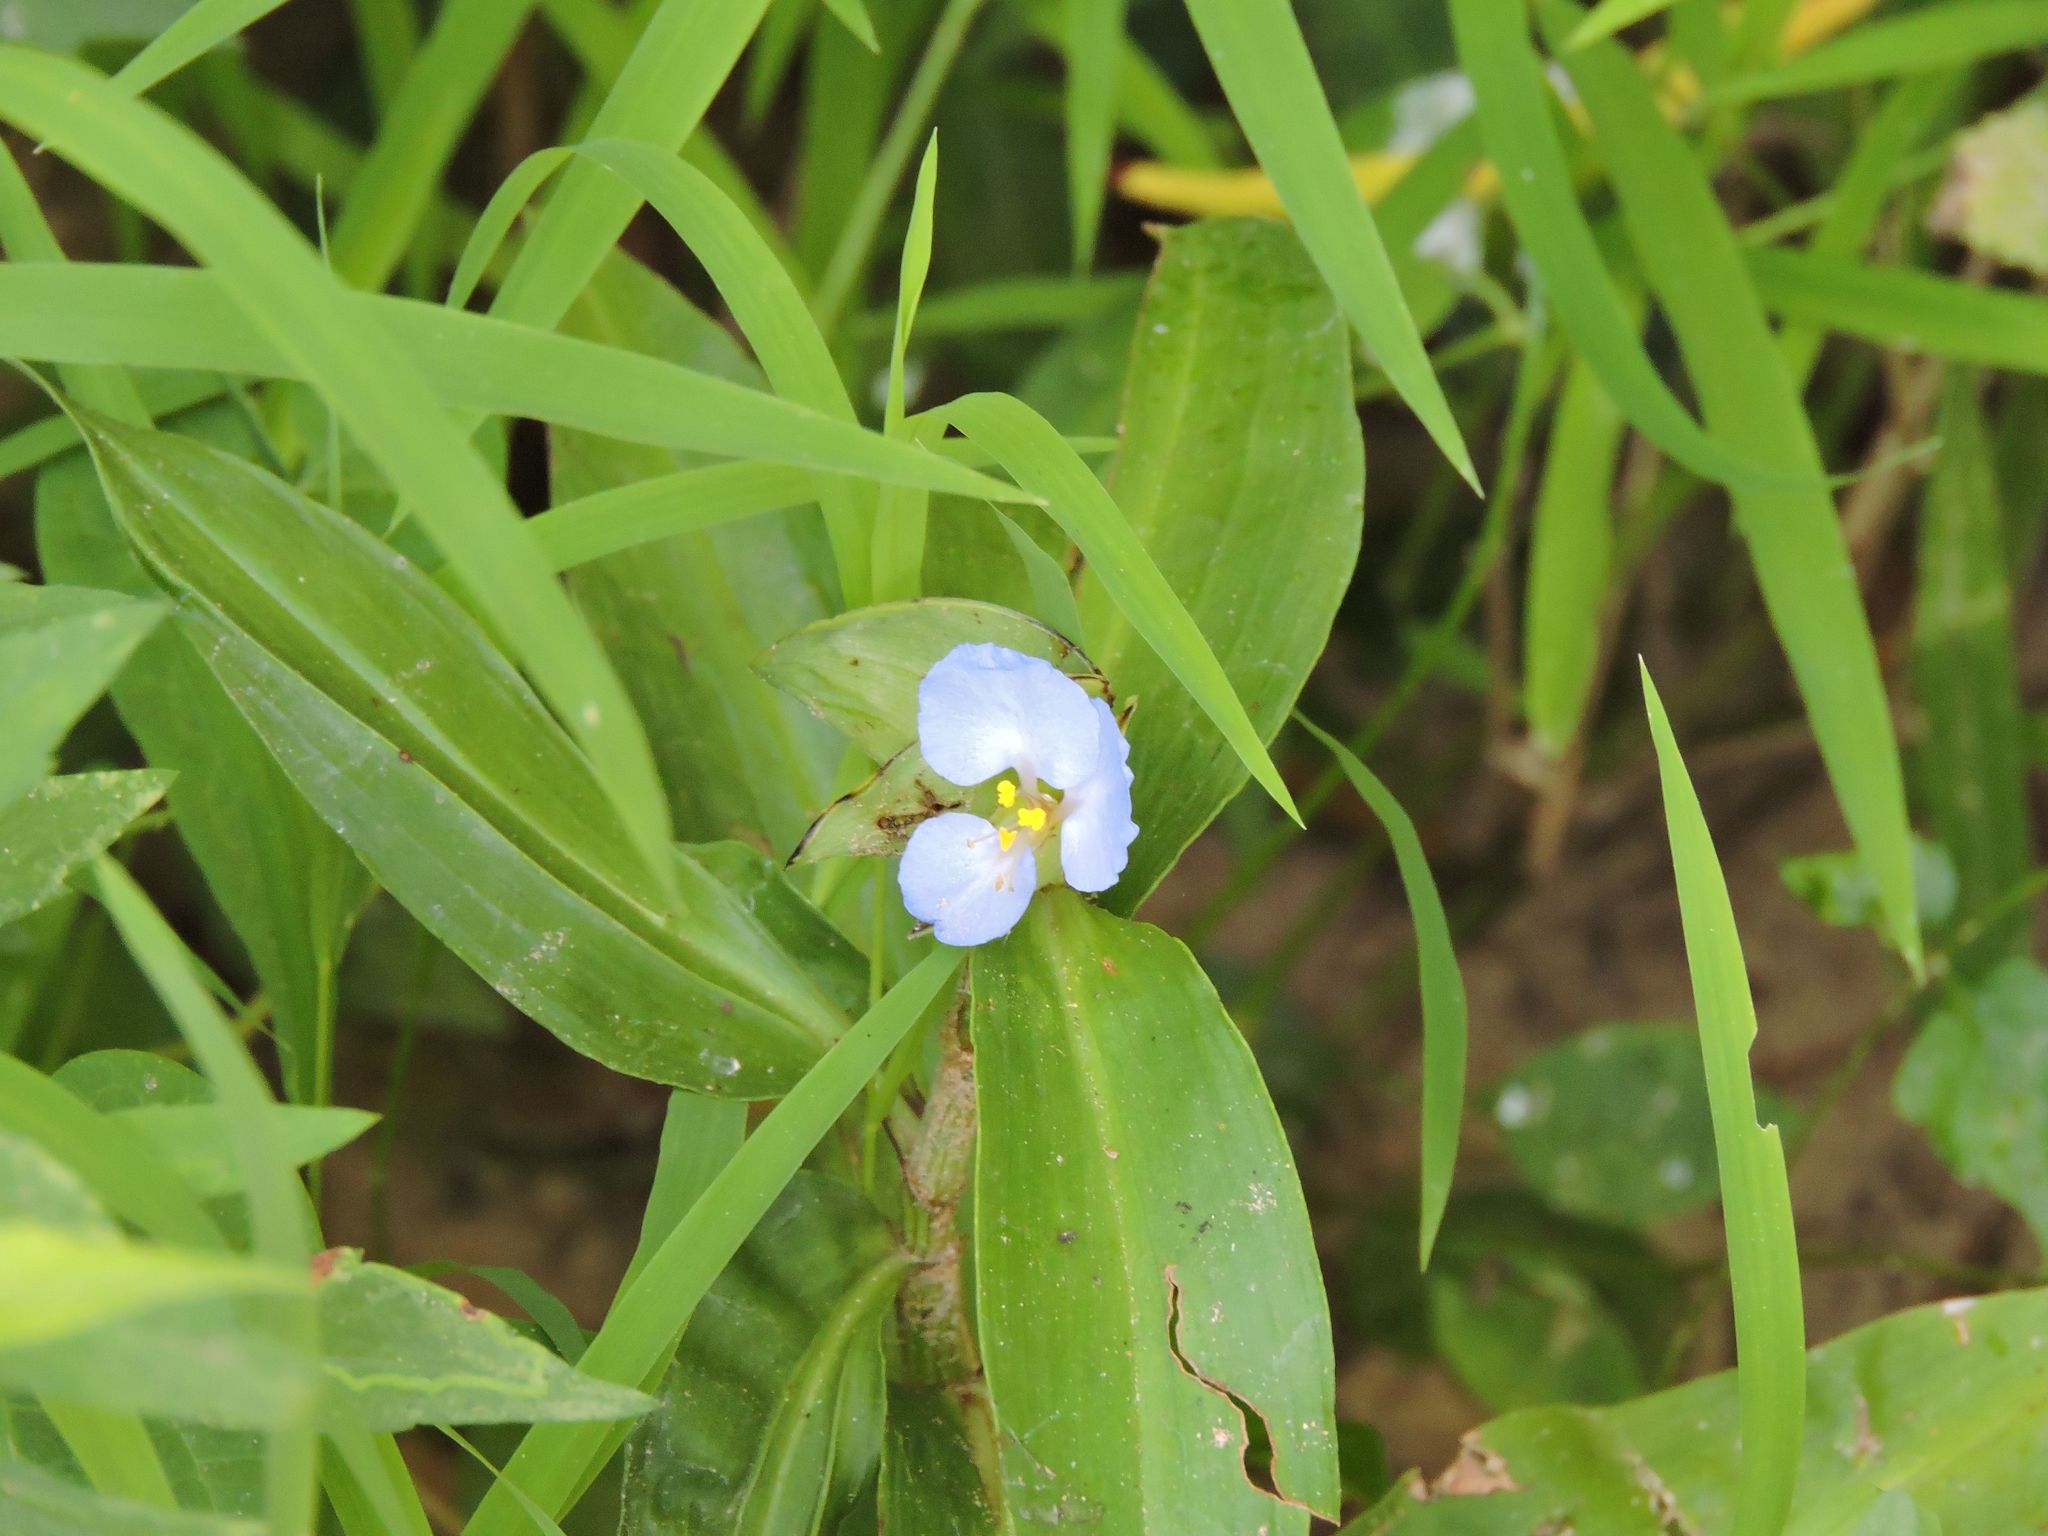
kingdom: Plantae
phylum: Tracheophyta
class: Liliopsida
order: Commelinales
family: Commelinaceae
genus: Commelina
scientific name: Commelina virginica
